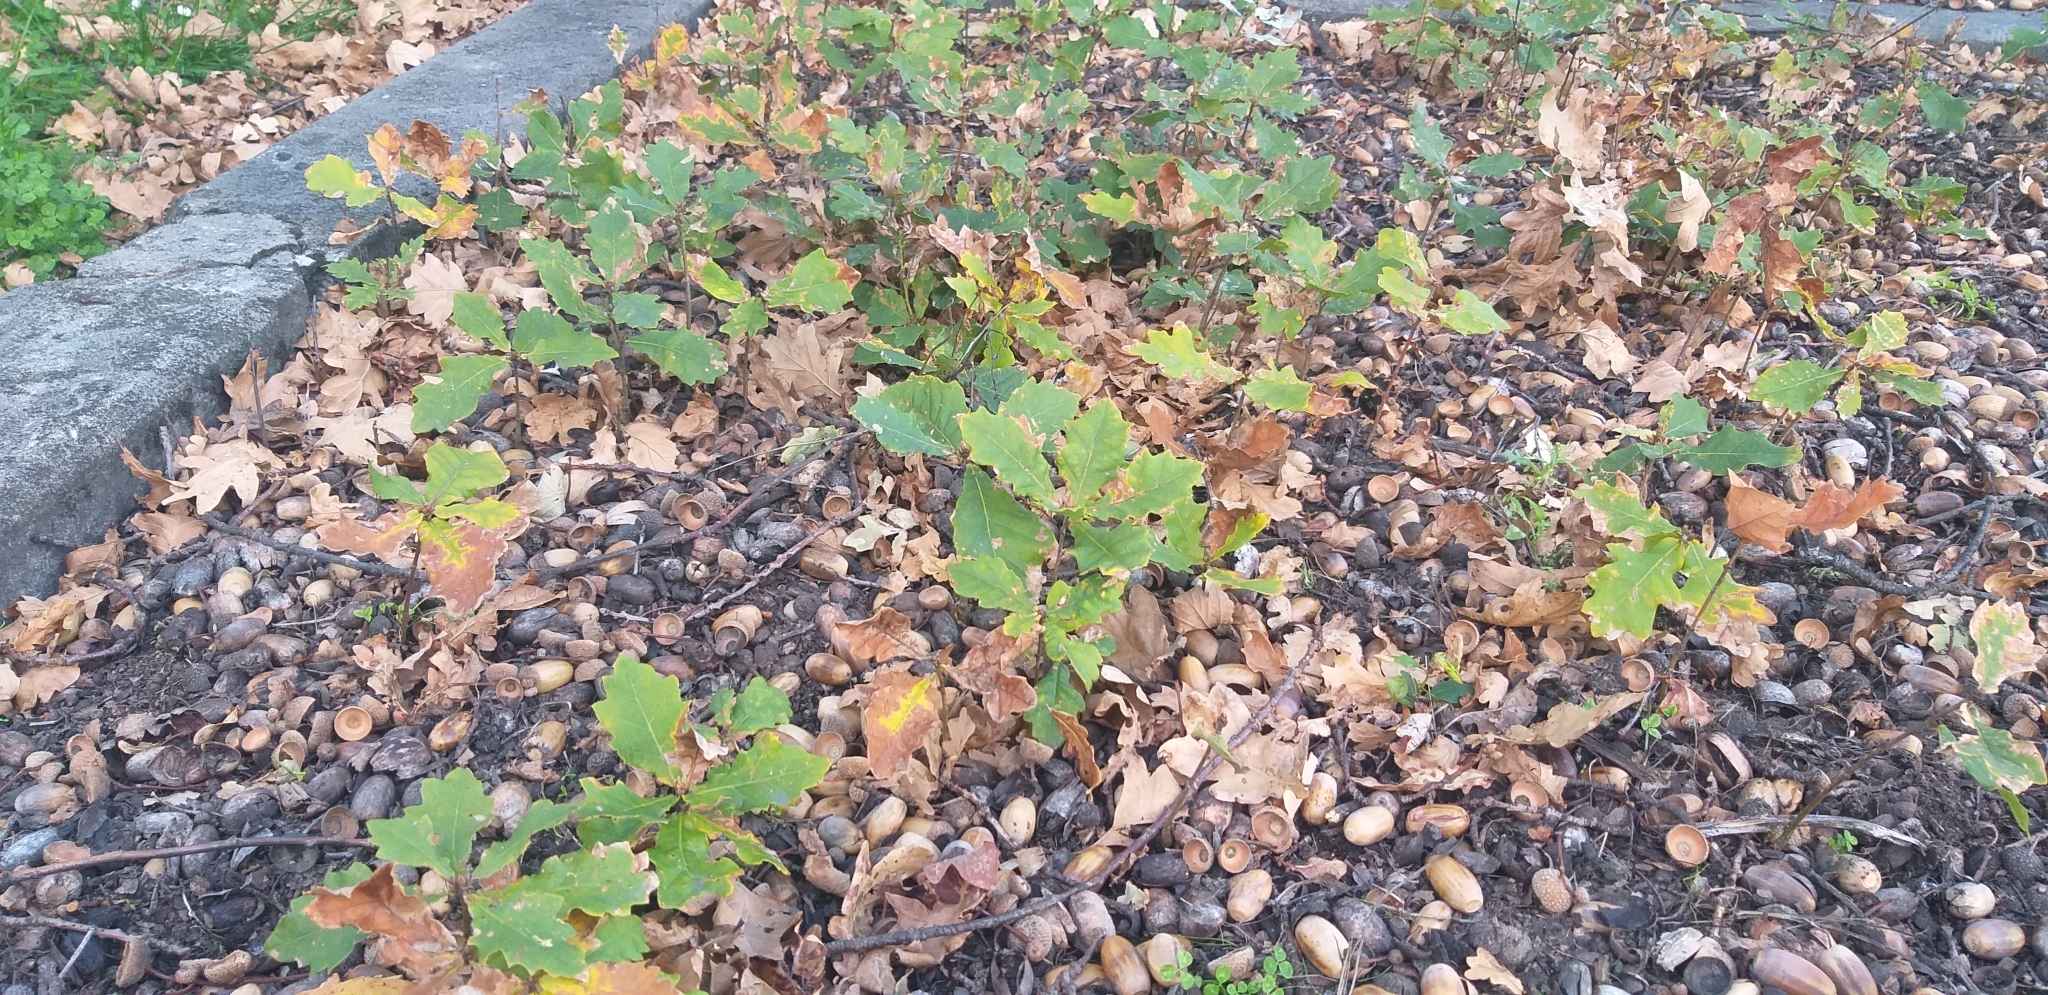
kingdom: Plantae
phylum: Tracheophyta
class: Magnoliopsida
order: Fagales
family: Fagaceae
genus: Quercus
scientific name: Quercus robur
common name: Pedunculate oak
